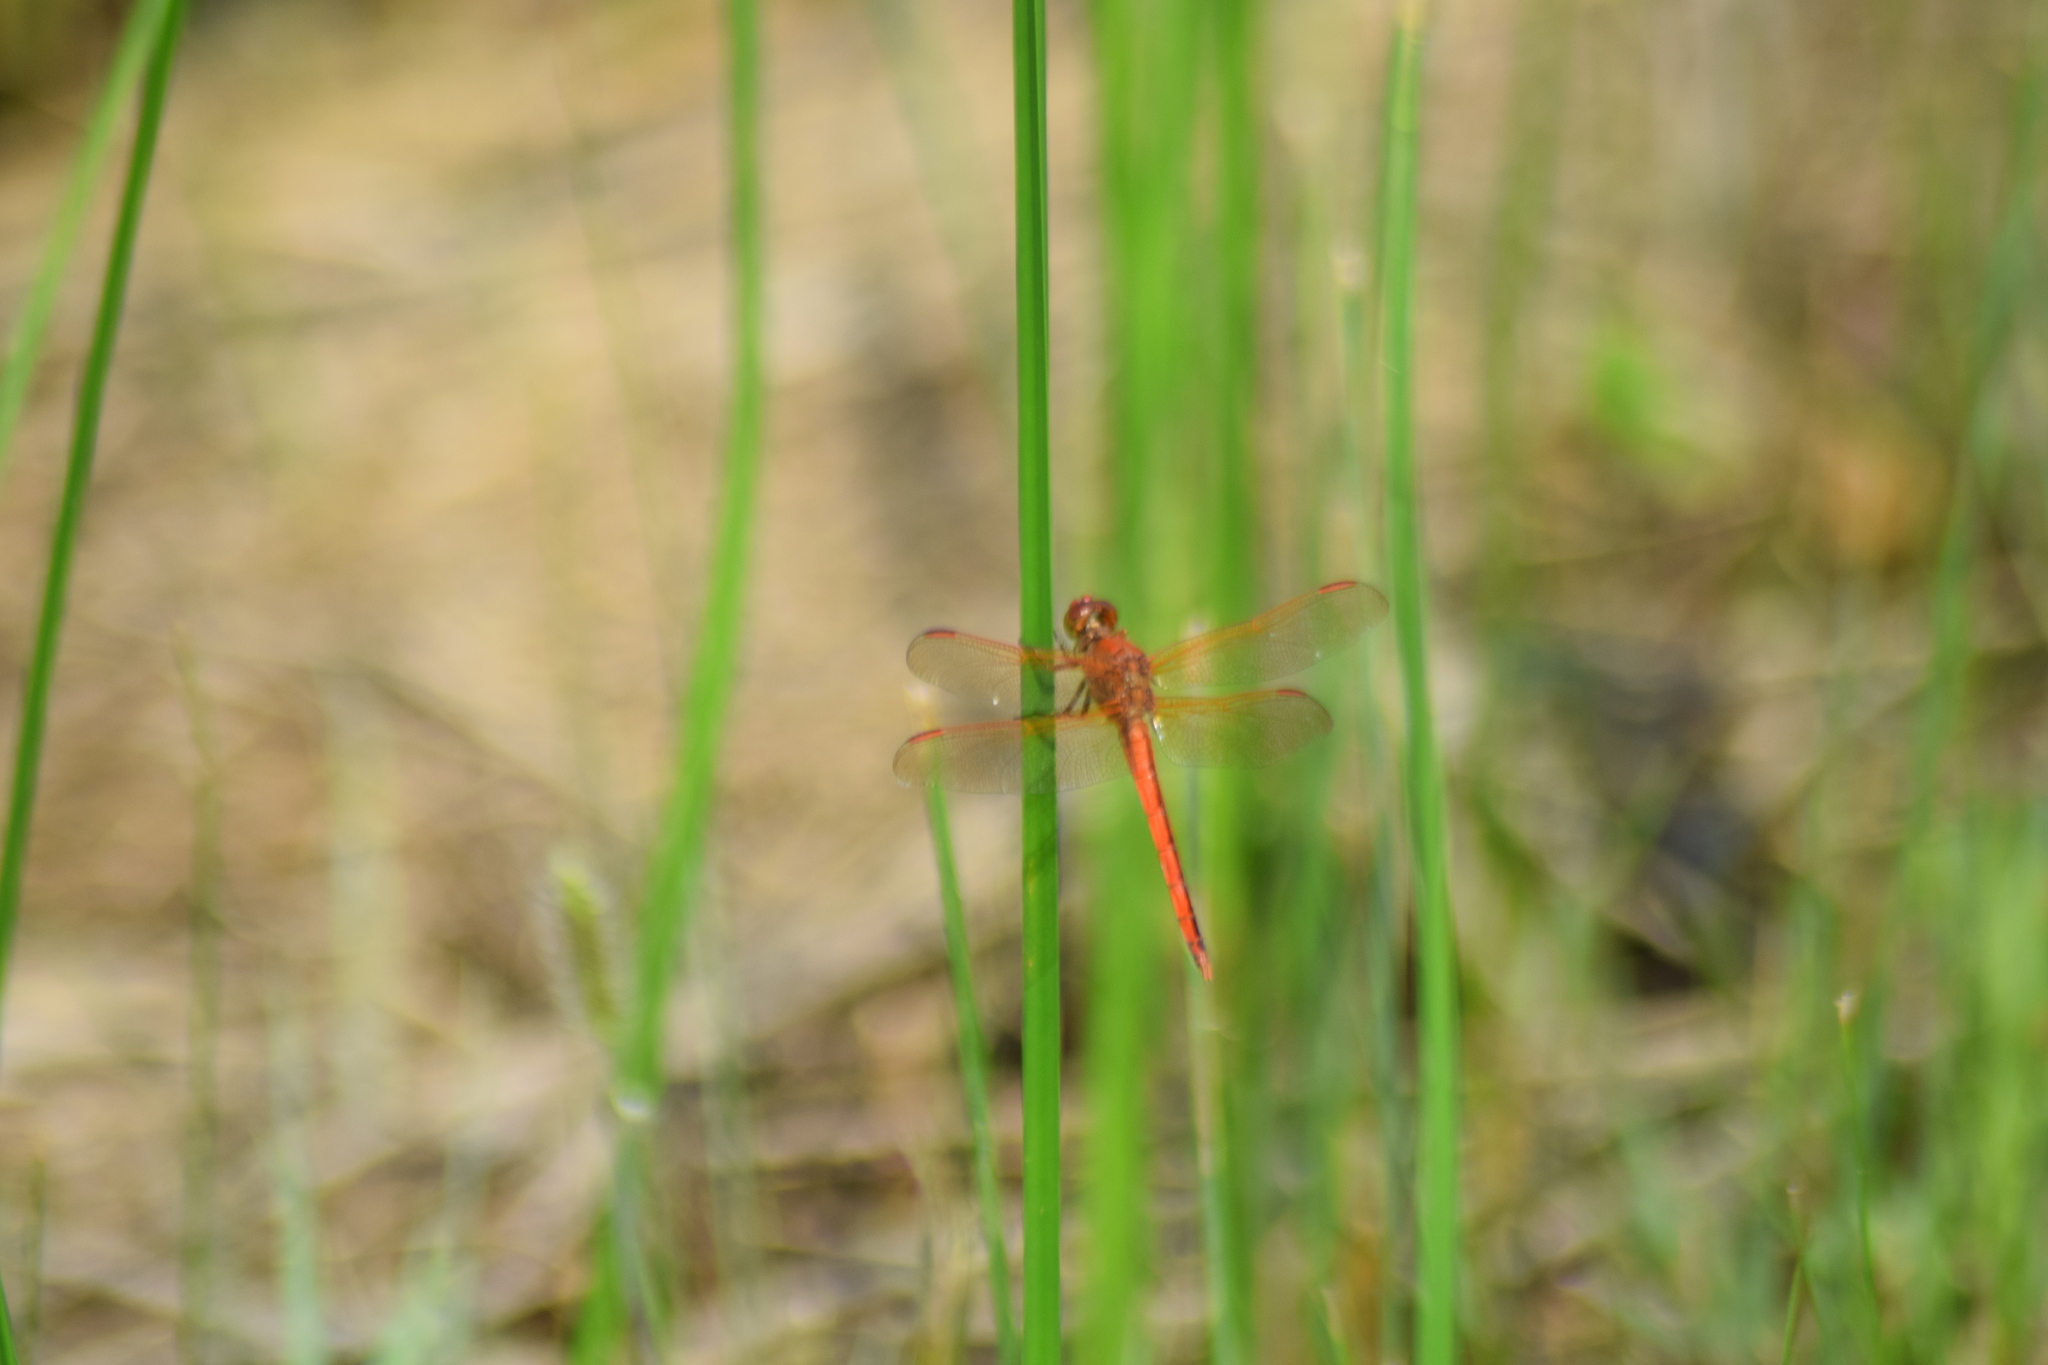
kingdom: Animalia
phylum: Arthropoda
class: Insecta
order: Odonata
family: Libellulidae
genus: Libellula
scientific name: Libellula needhami
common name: Needham's skimmer
